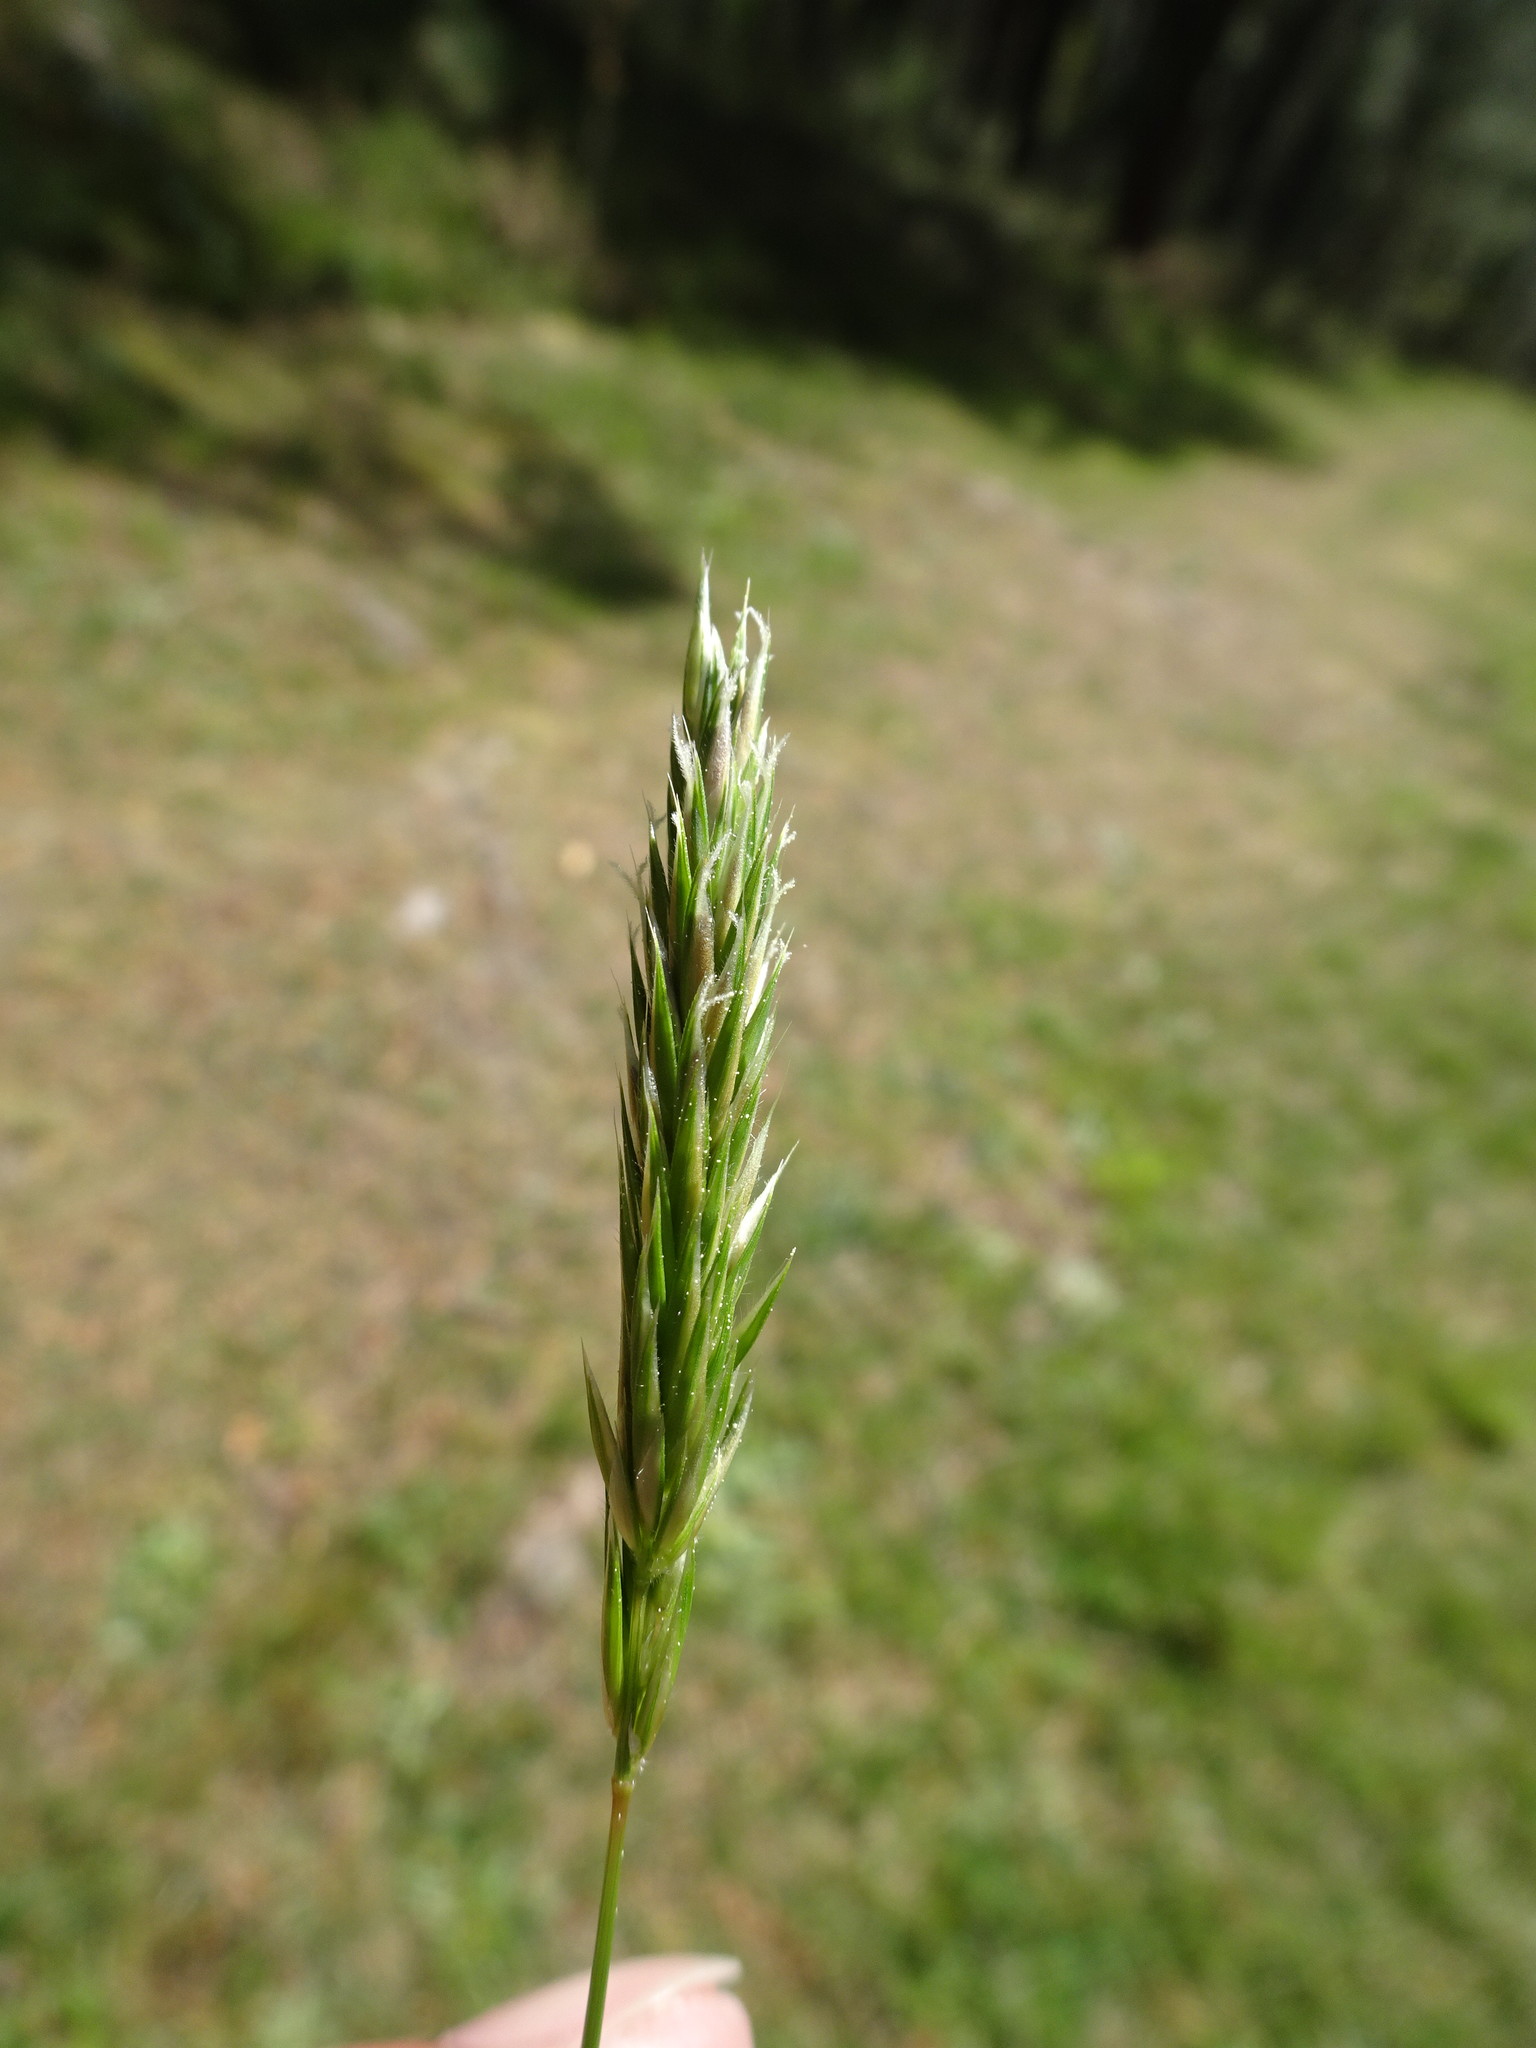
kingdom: Plantae
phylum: Tracheophyta
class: Liliopsida
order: Poales
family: Poaceae
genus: Anthoxanthum
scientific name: Anthoxanthum odoratum
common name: Sweet vernalgrass
